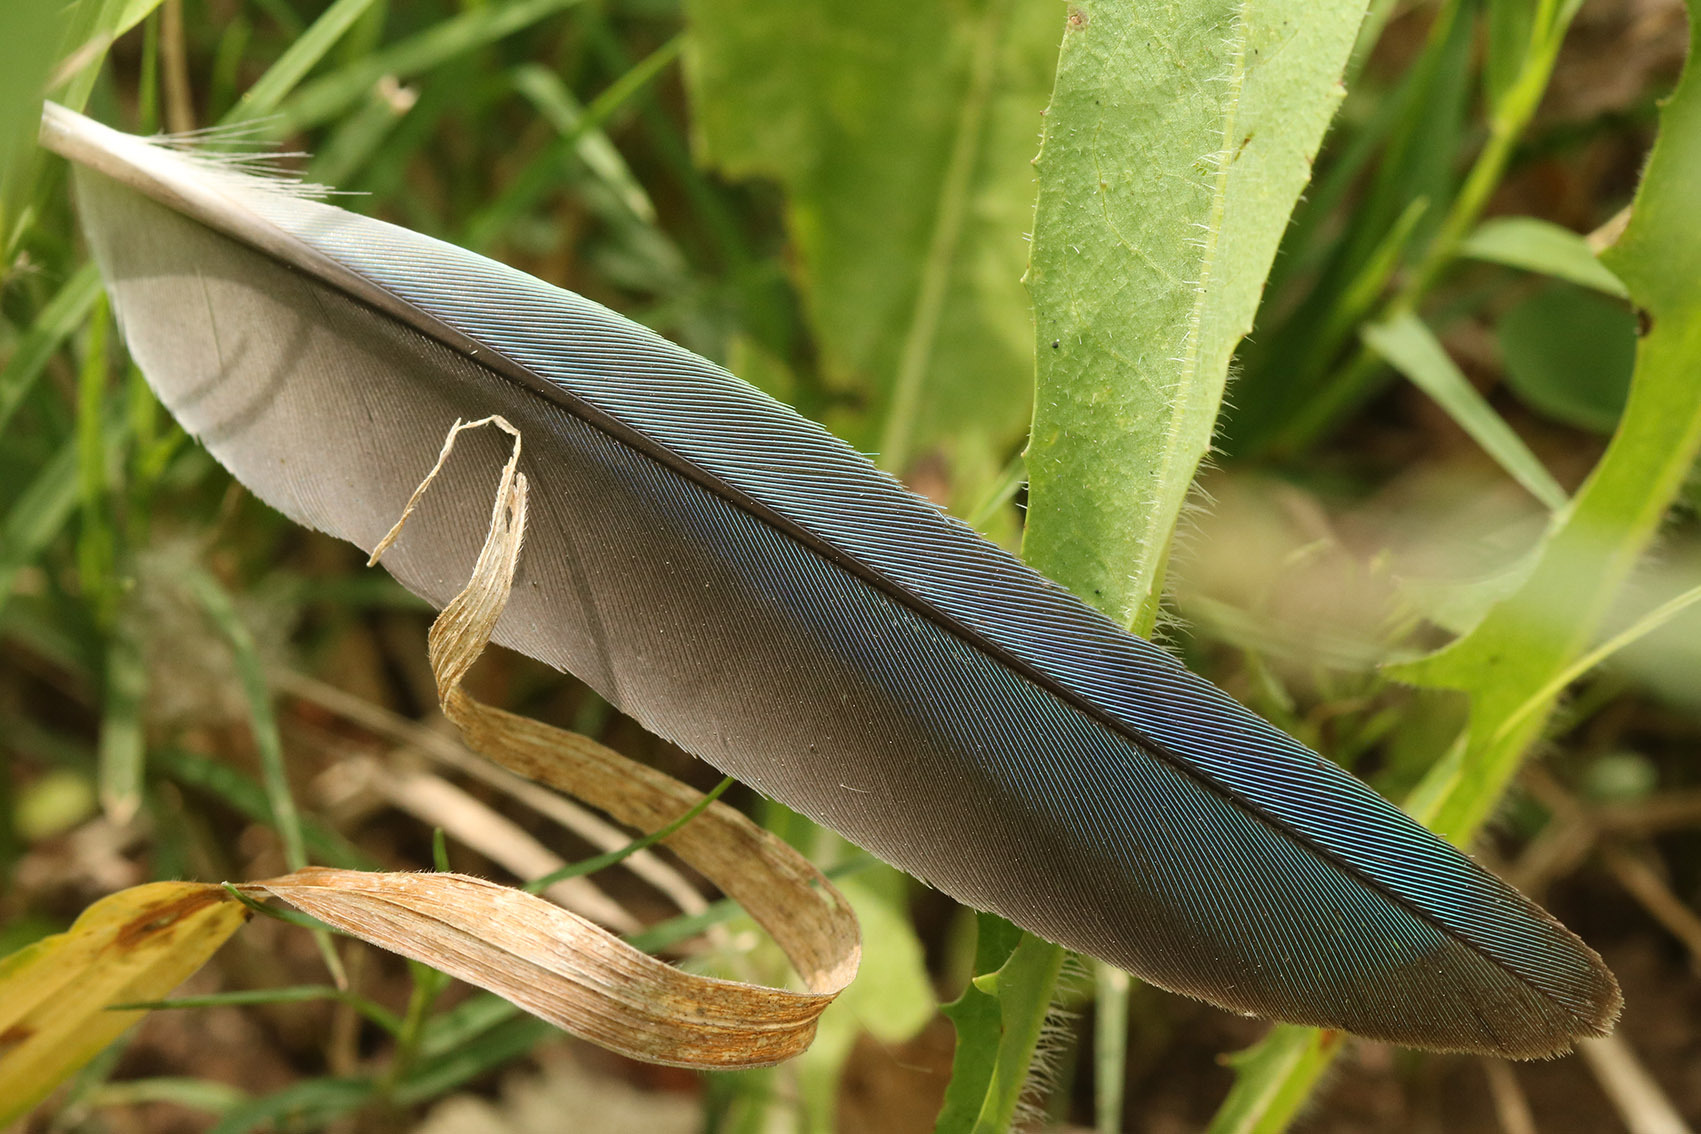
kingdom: Animalia
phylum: Chordata
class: Aves
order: Psittaciformes
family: Psittacidae
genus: Myiopsitta
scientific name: Myiopsitta monachus
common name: Monk parakeet
